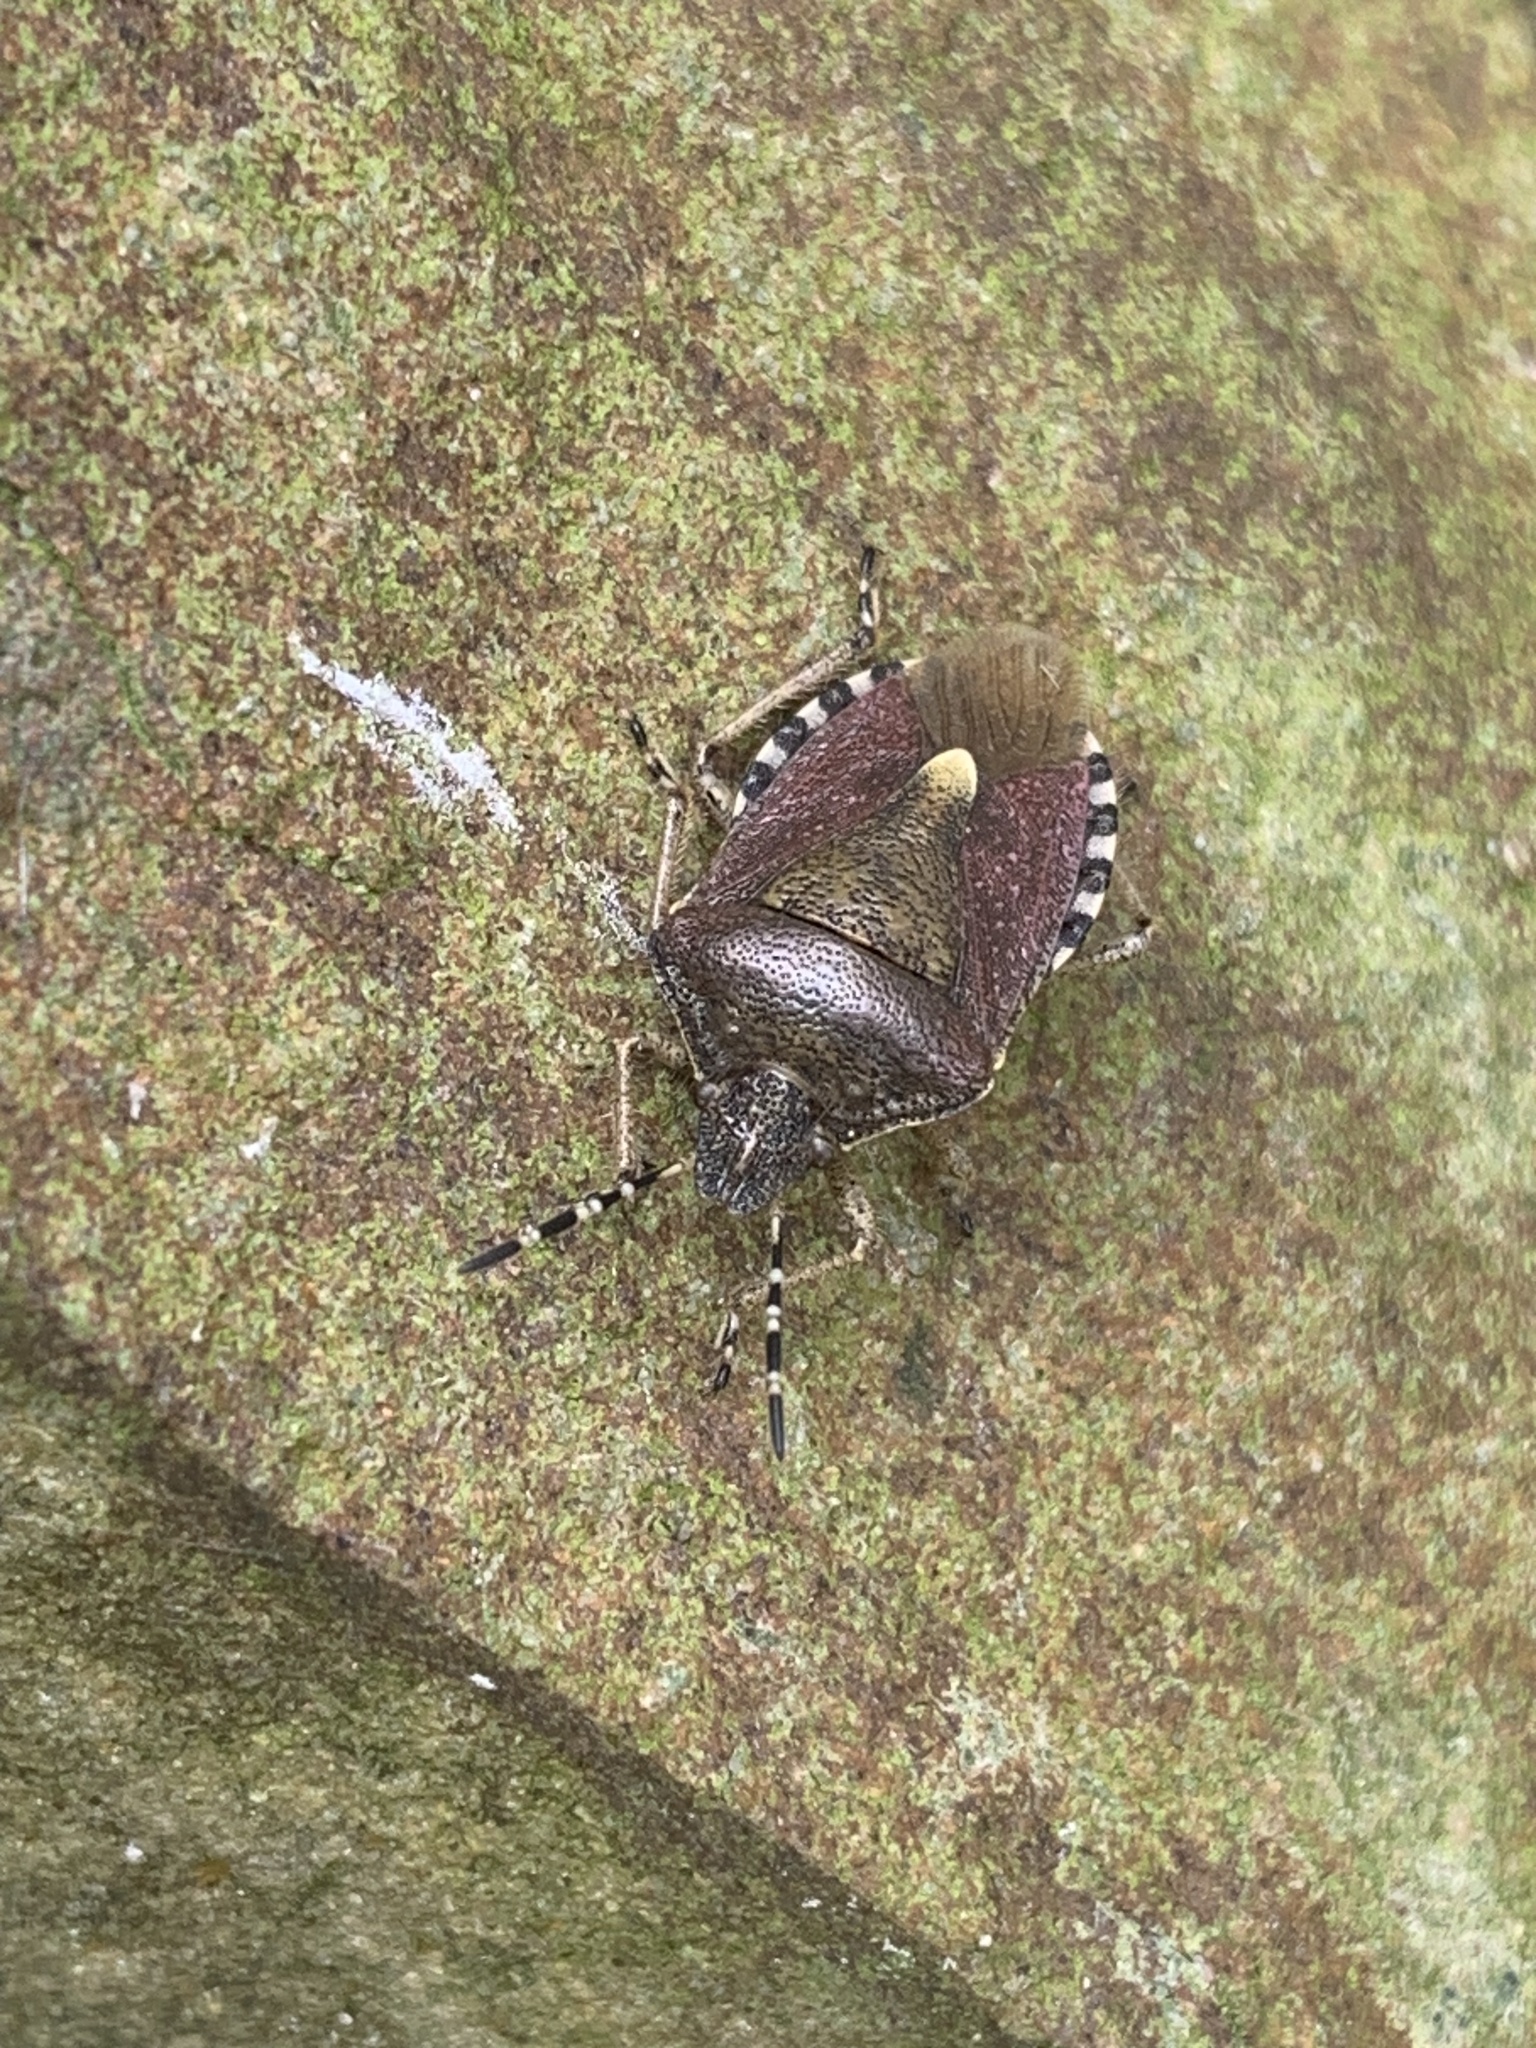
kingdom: Animalia
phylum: Arthropoda
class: Insecta
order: Hemiptera
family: Pentatomidae
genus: Dolycoris
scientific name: Dolycoris baccarum
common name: Sloe bug
